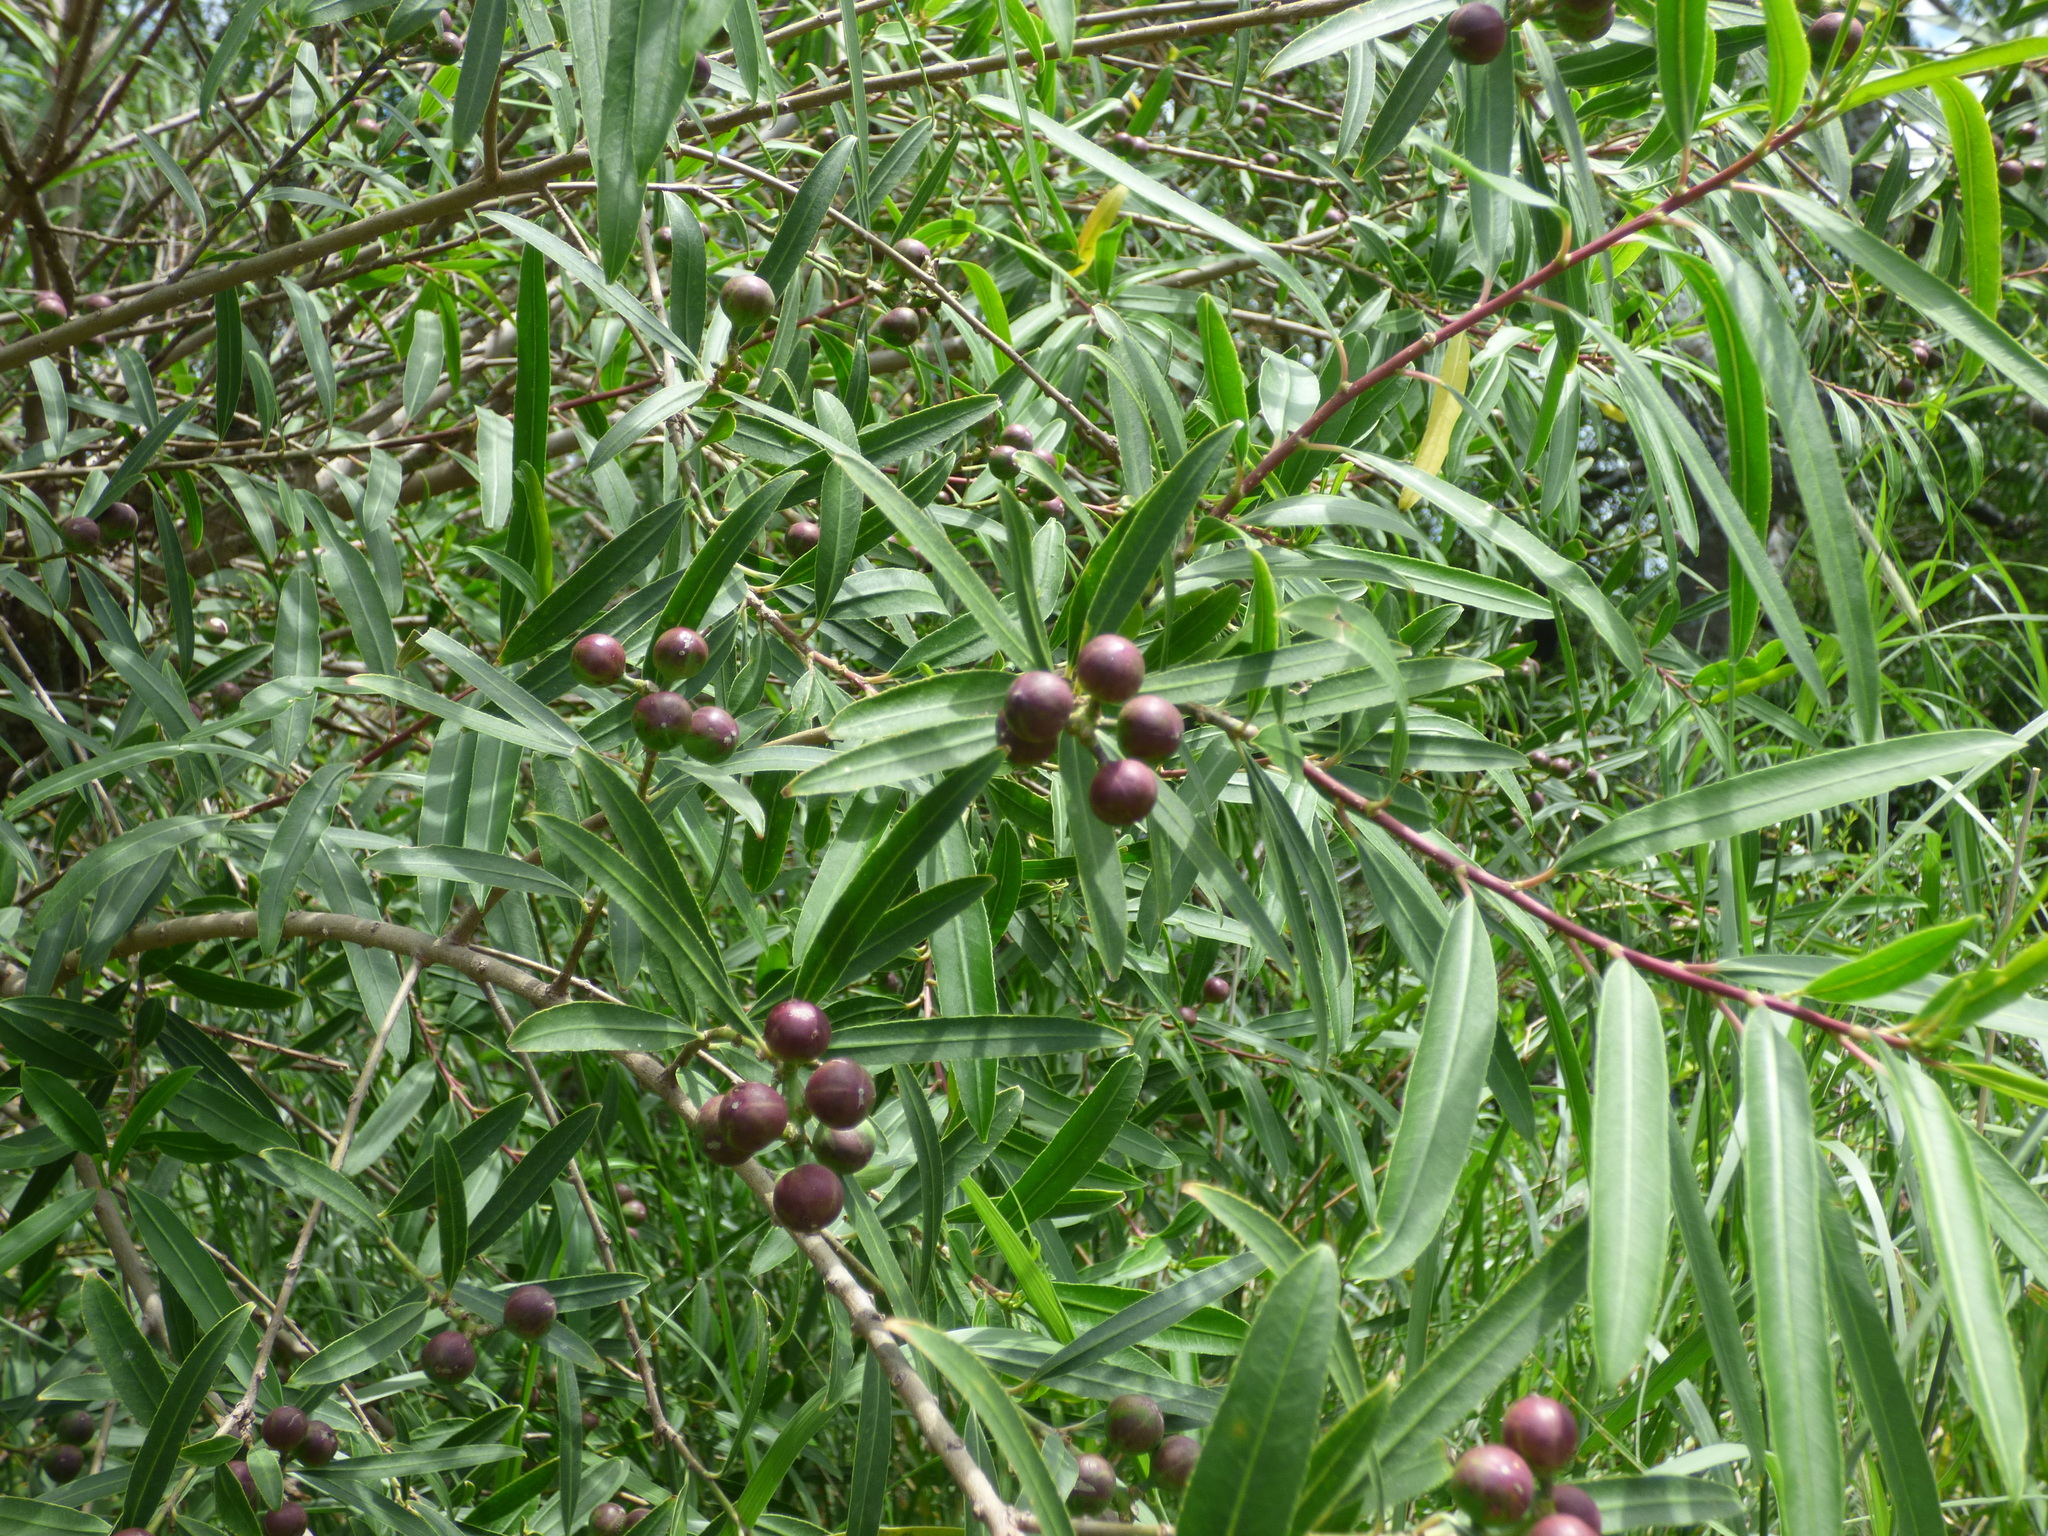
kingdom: Plantae
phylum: Tracheophyta
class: Magnoliopsida
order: Malpighiales
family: Euphorbiaceae
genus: Sapium
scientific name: Sapium haematospermum
